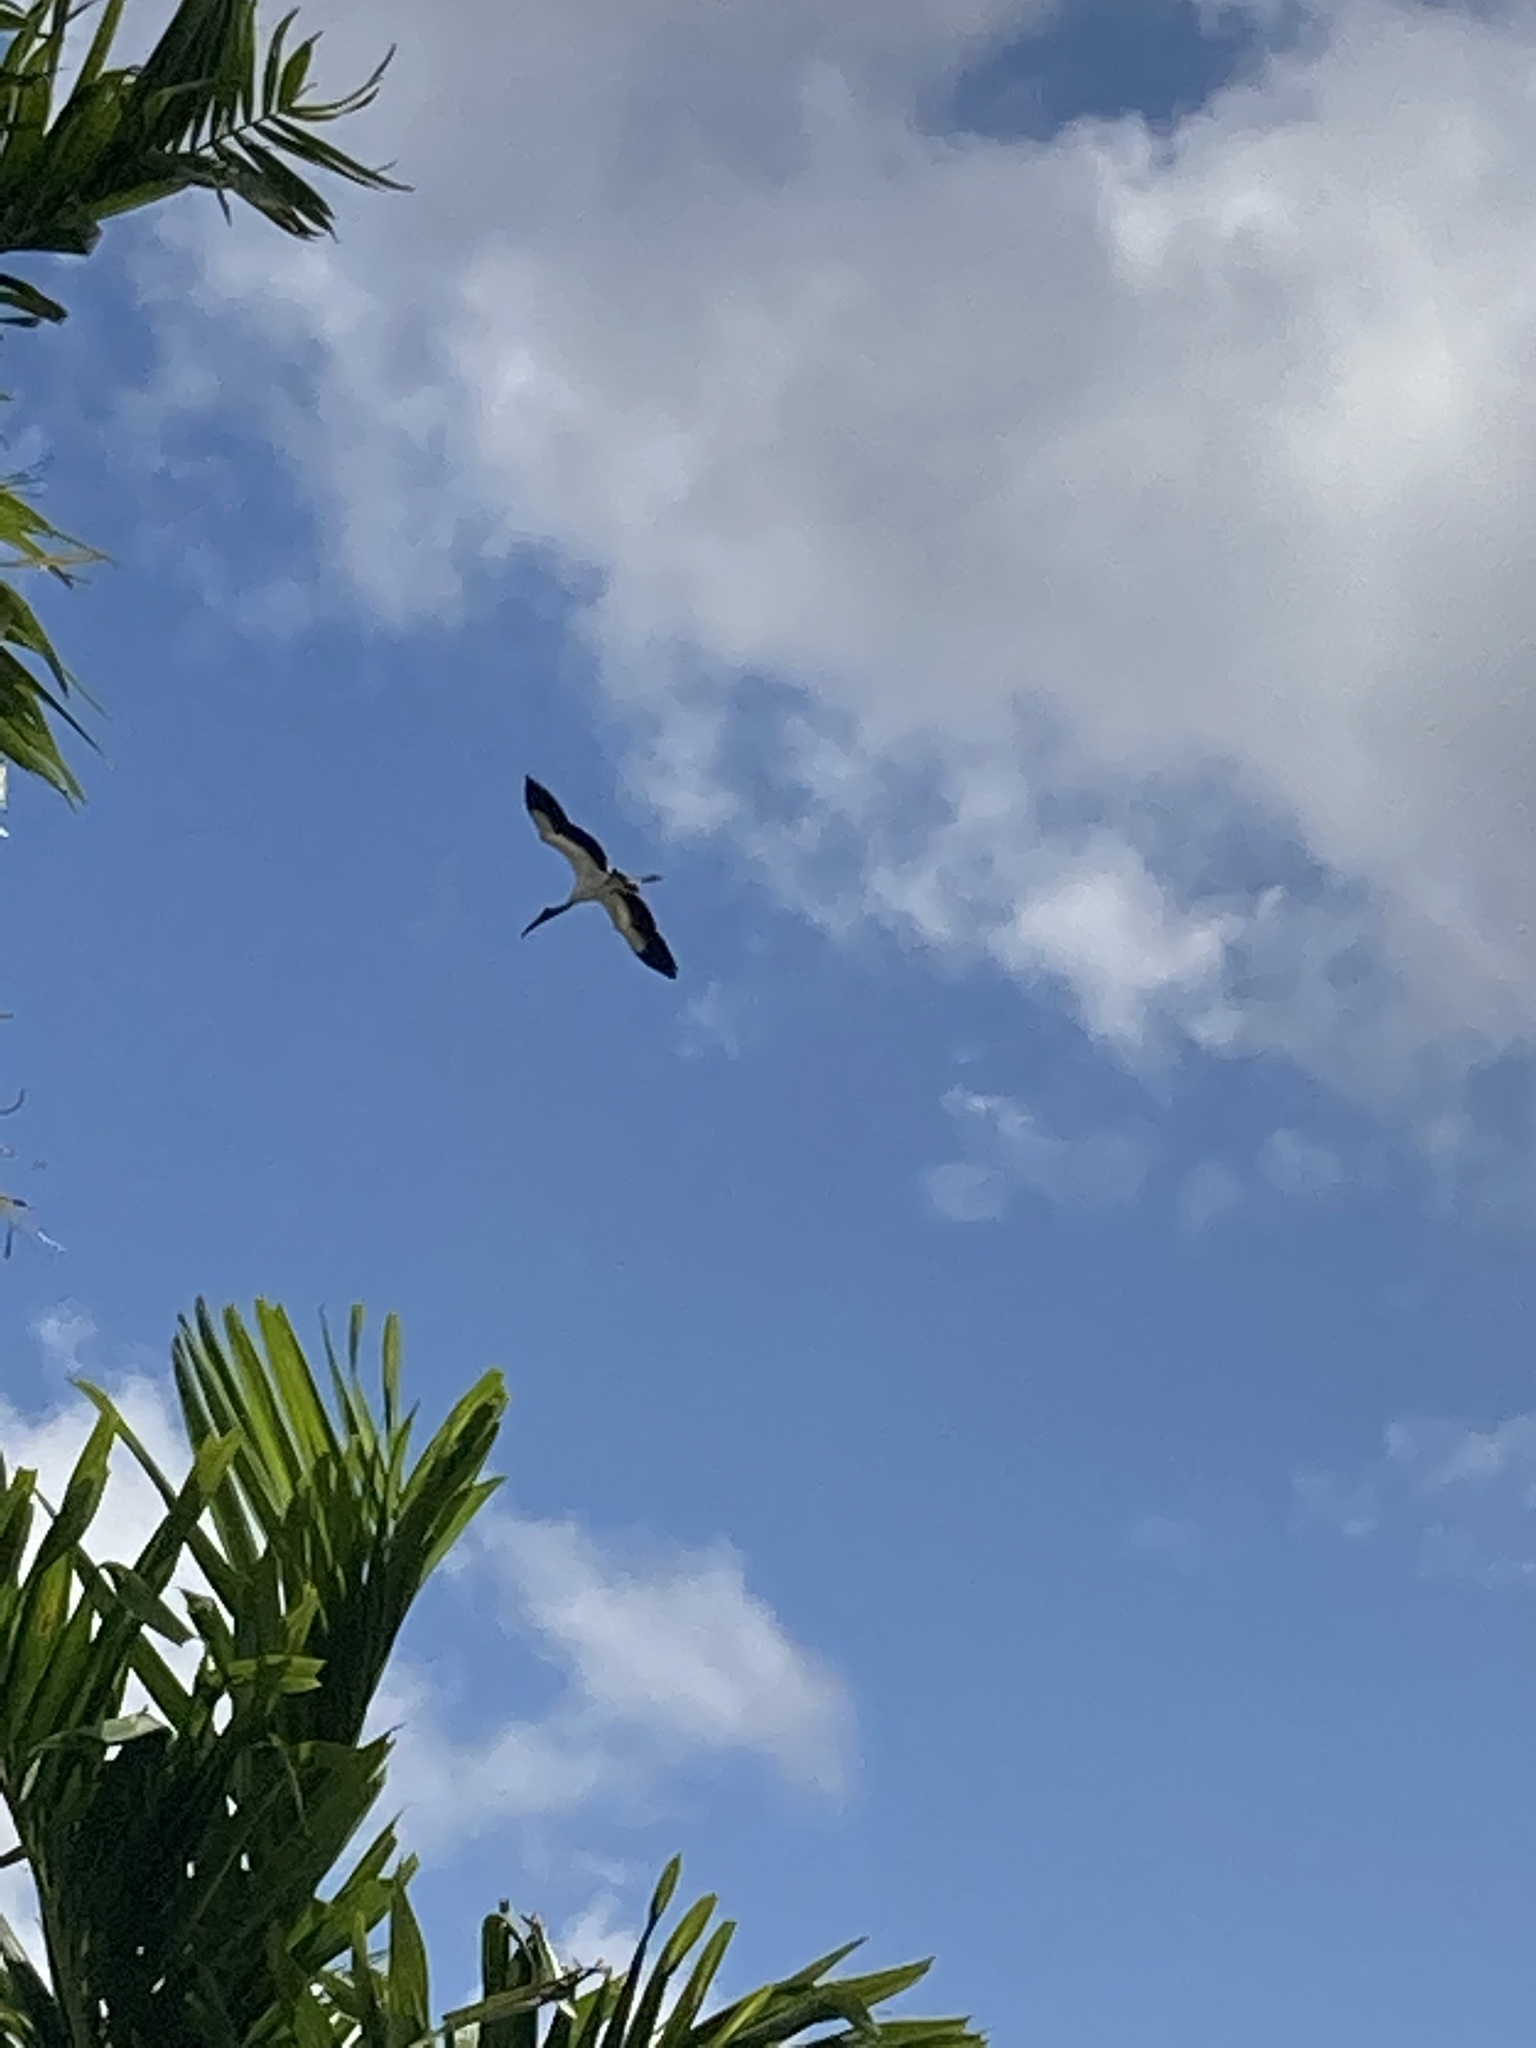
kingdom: Animalia
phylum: Chordata
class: Aves
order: Ciconiiformes
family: Ciconiidae
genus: Mycteria
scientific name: Mycteria americana
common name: Wood stork
